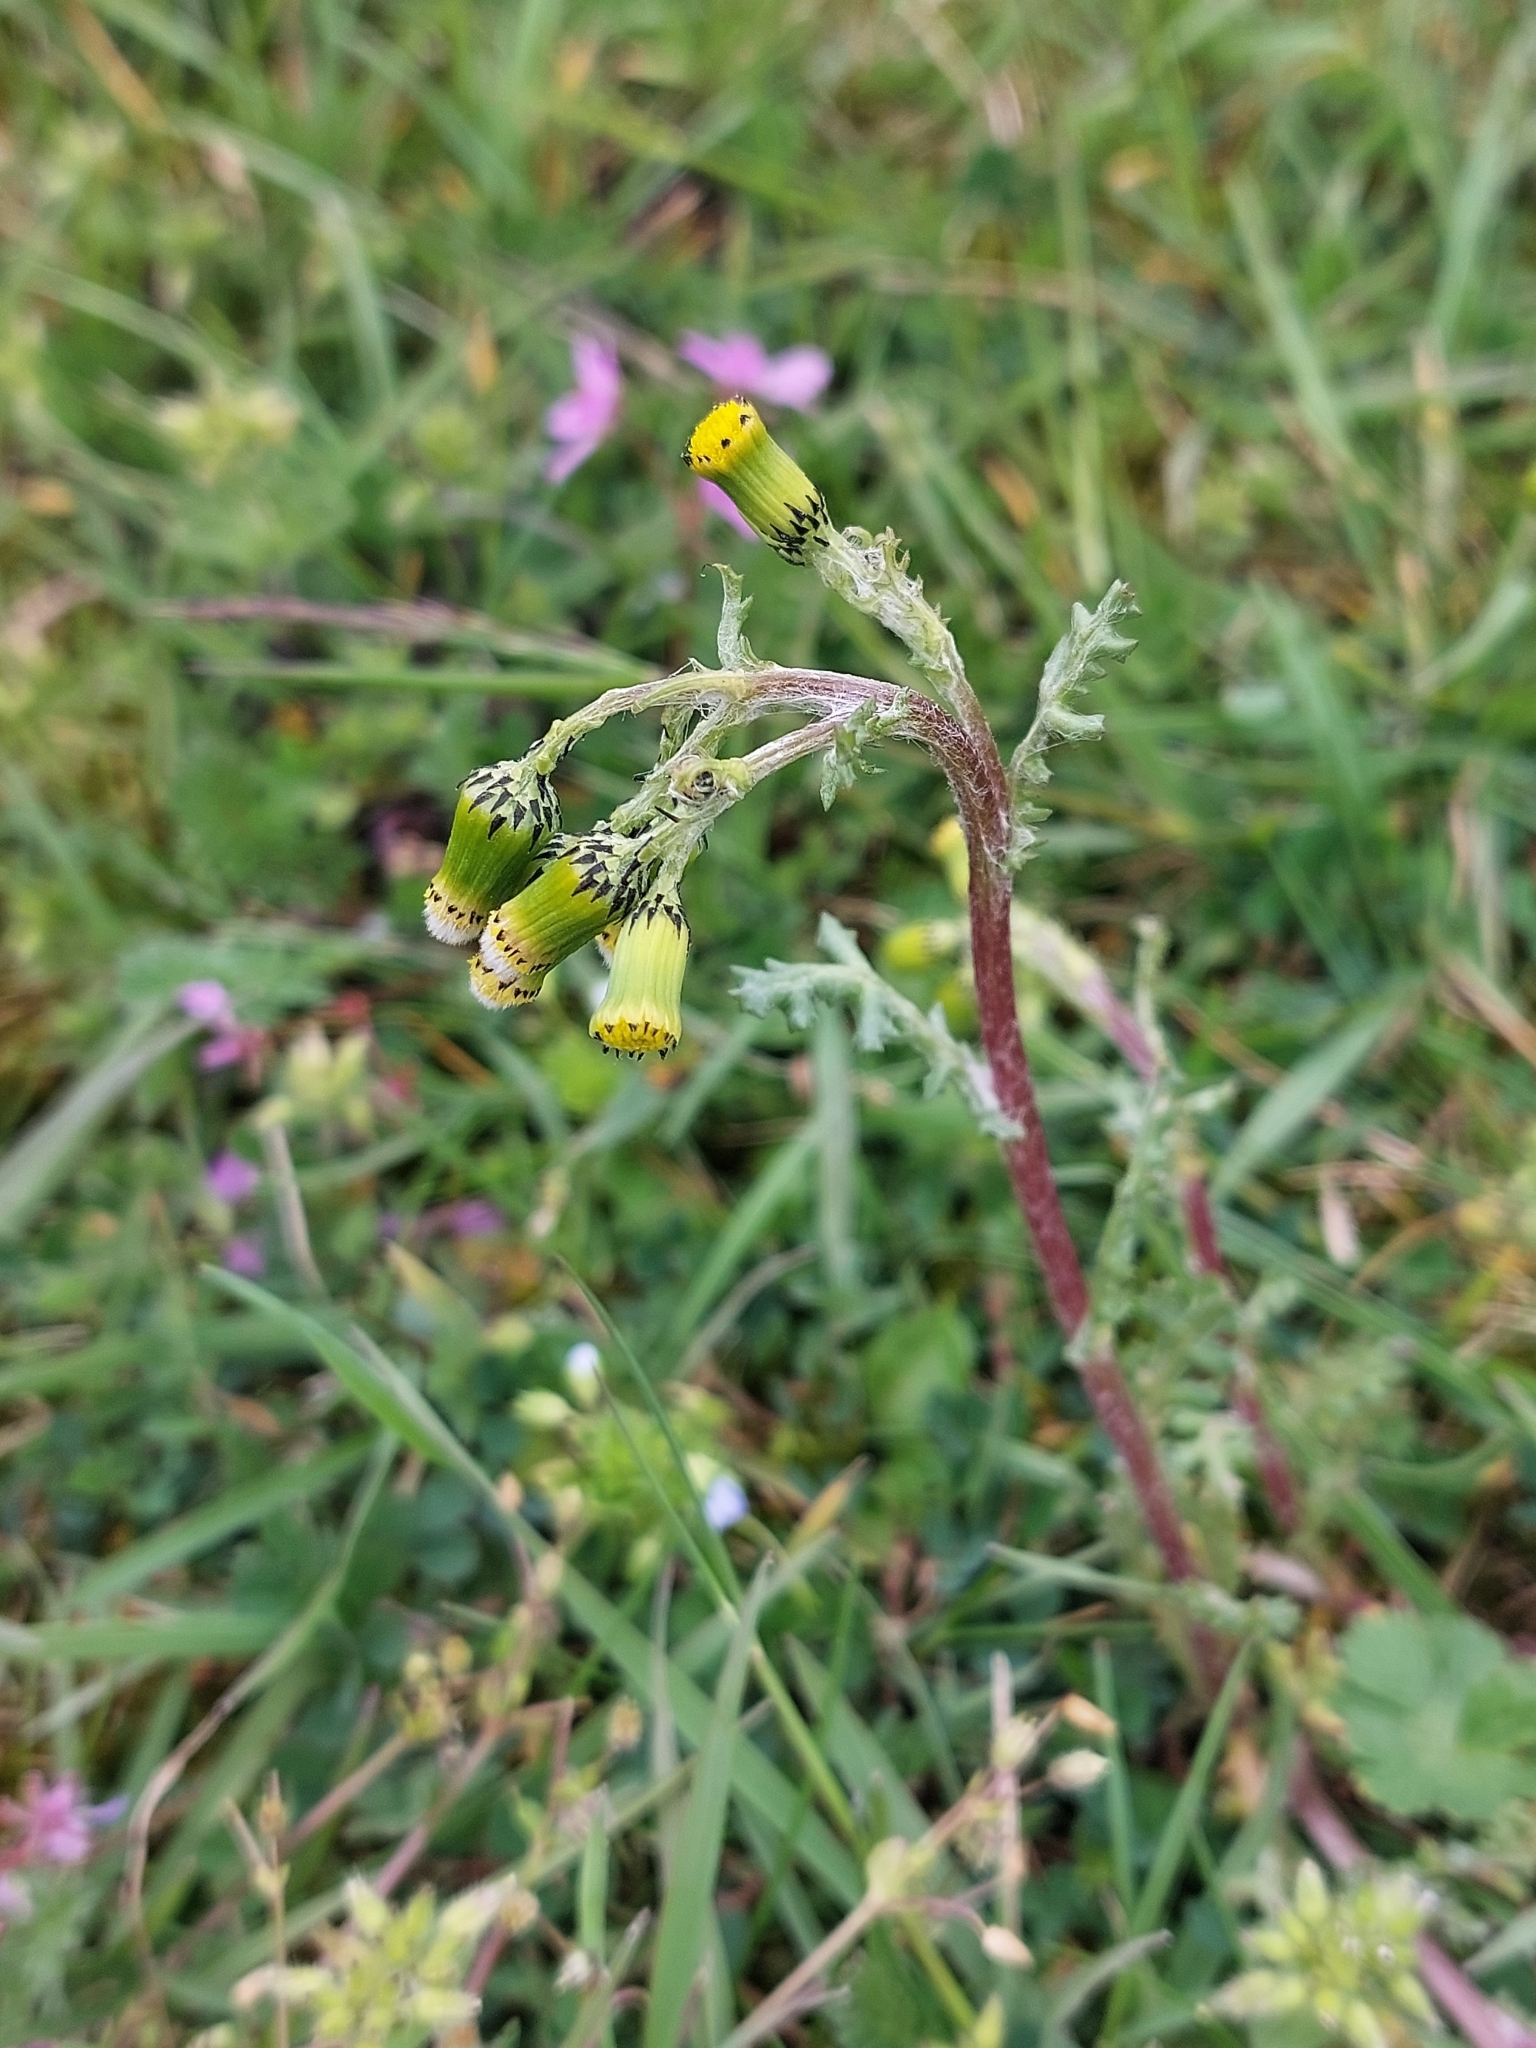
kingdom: Plantae
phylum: Tracheophyta
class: Magnoliopsida
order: Asterales
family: Asteraceae
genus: Senecio
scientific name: Senecio vulgaris
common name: Old-man-in-the-spring
